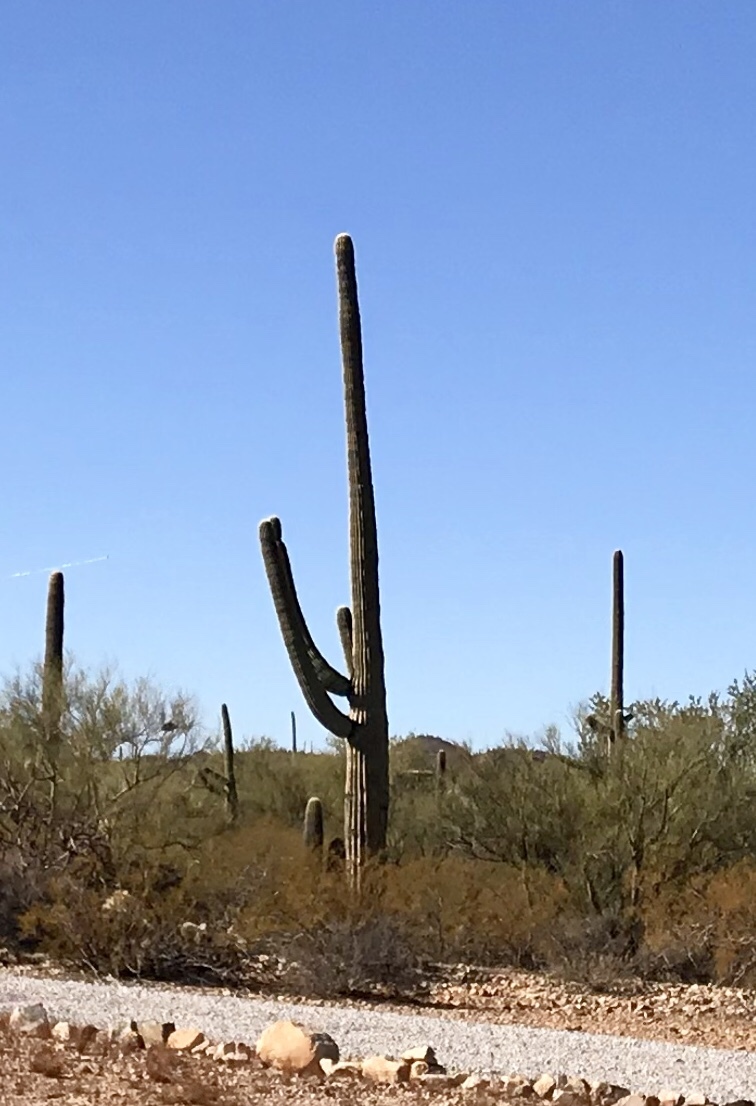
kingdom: Plantae
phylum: Tracheophyta
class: Magnoliopsida
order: Caryophyllales
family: Cactaceae
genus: Carnegiea
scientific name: Carnegiea gigantea
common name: Saguaro
